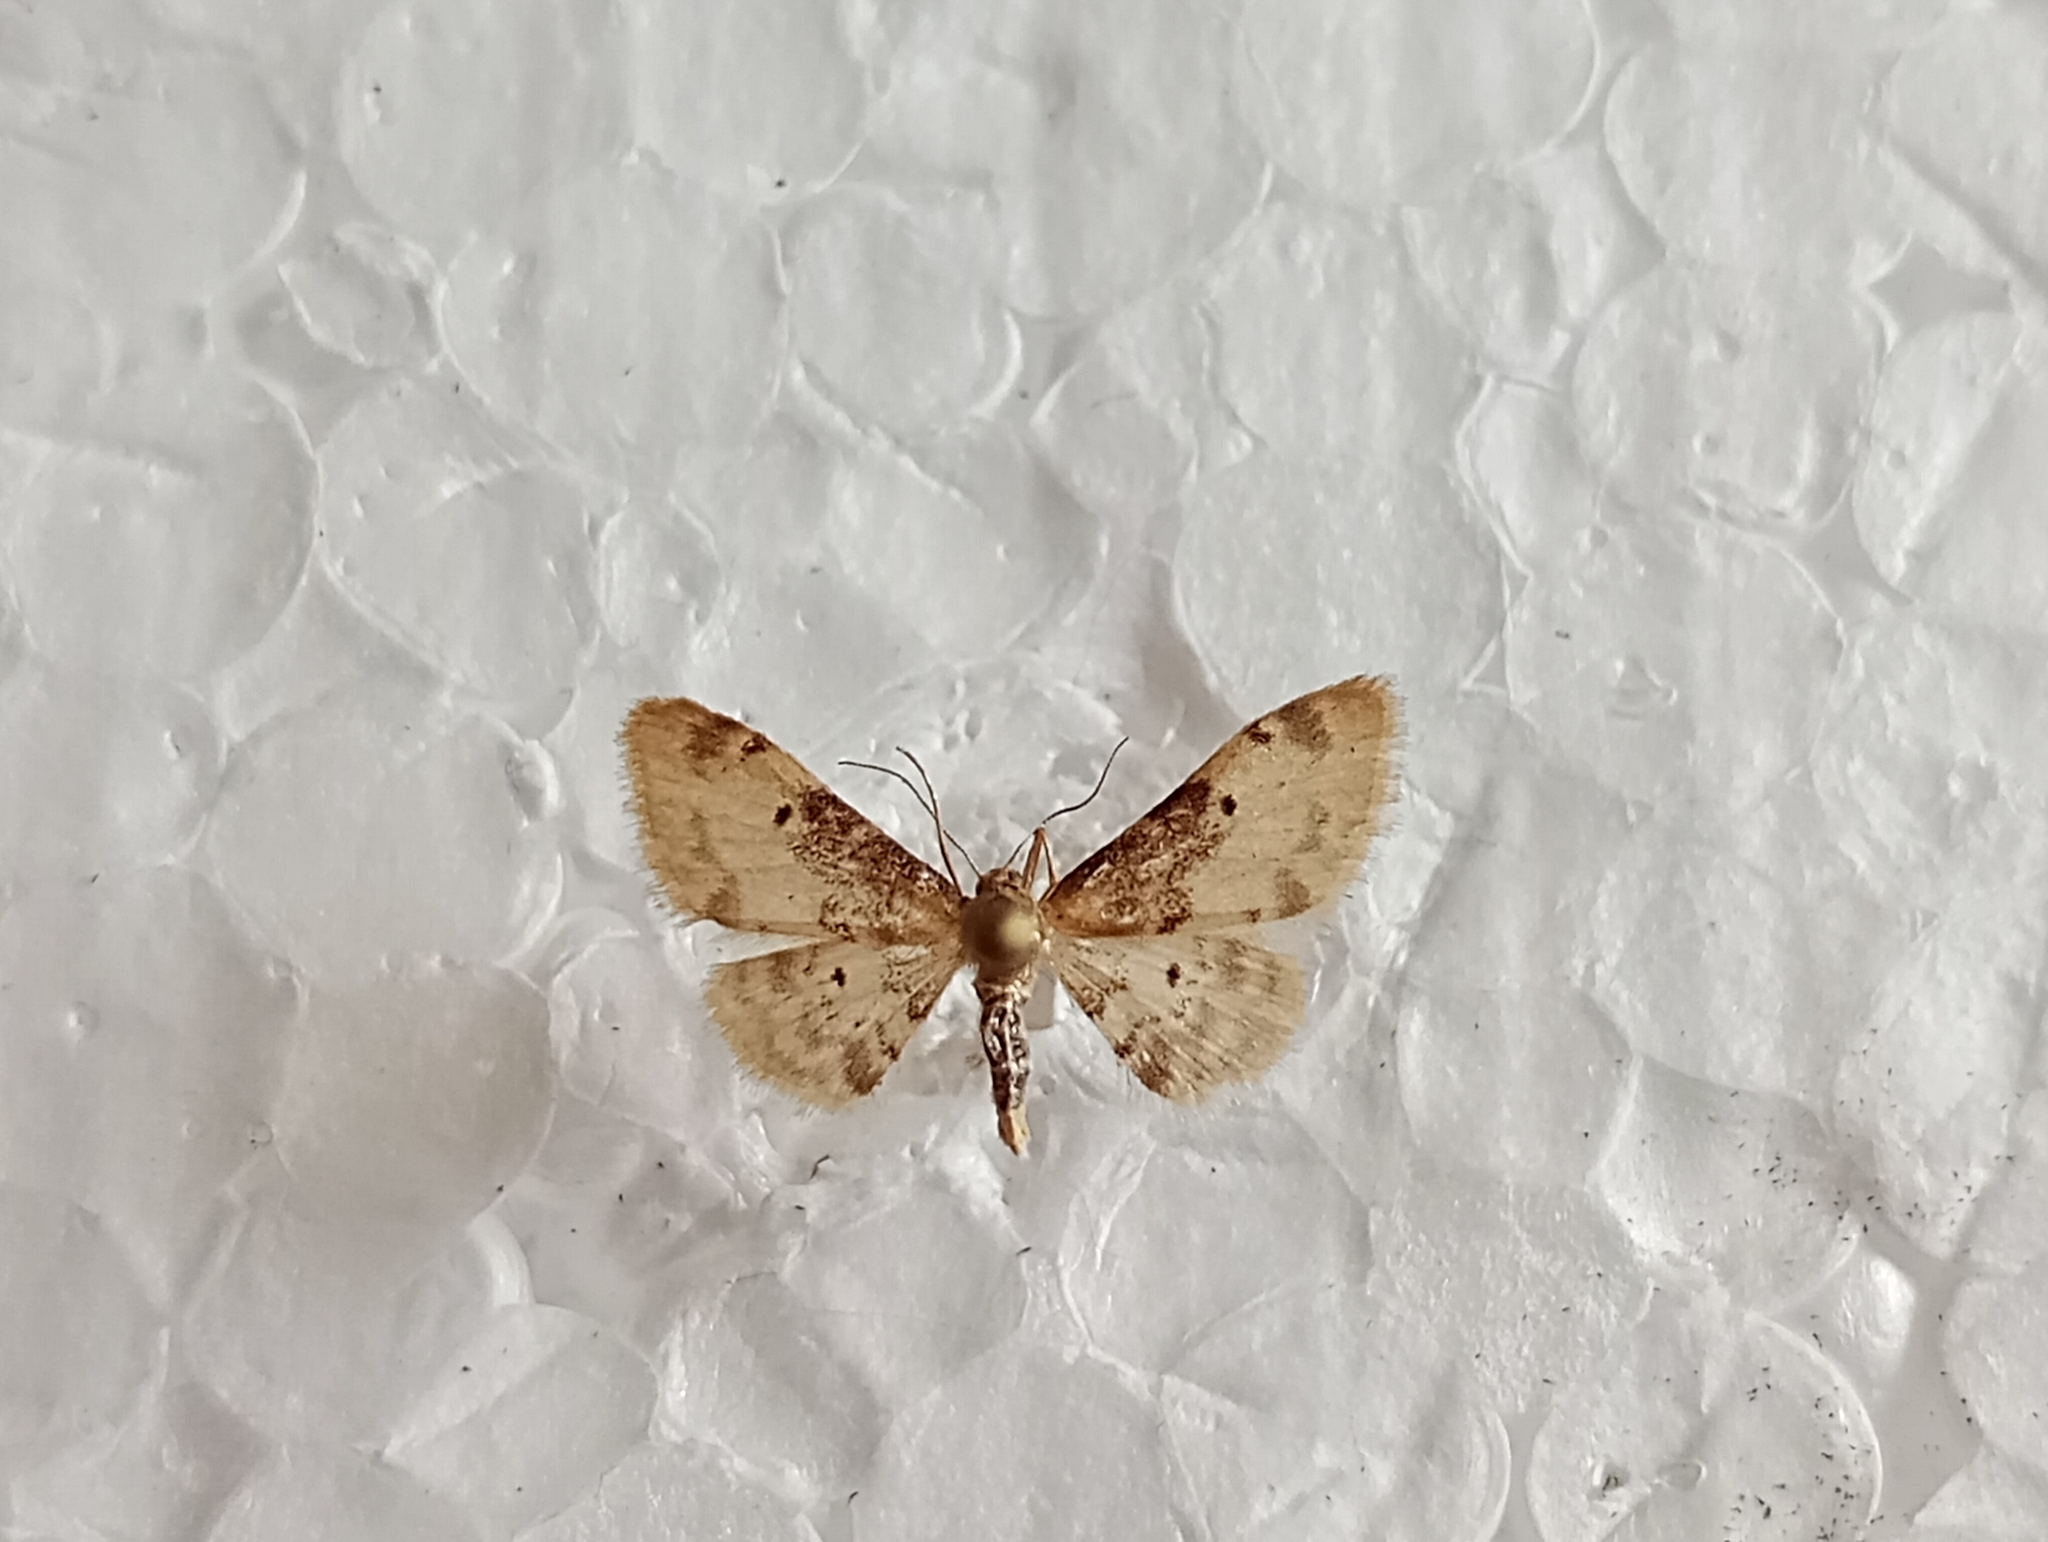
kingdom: Animalia
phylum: Arthropoda
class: Insecta
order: Lepidoptera
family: Geometridae
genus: Idaea
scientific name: Idaea filicata
